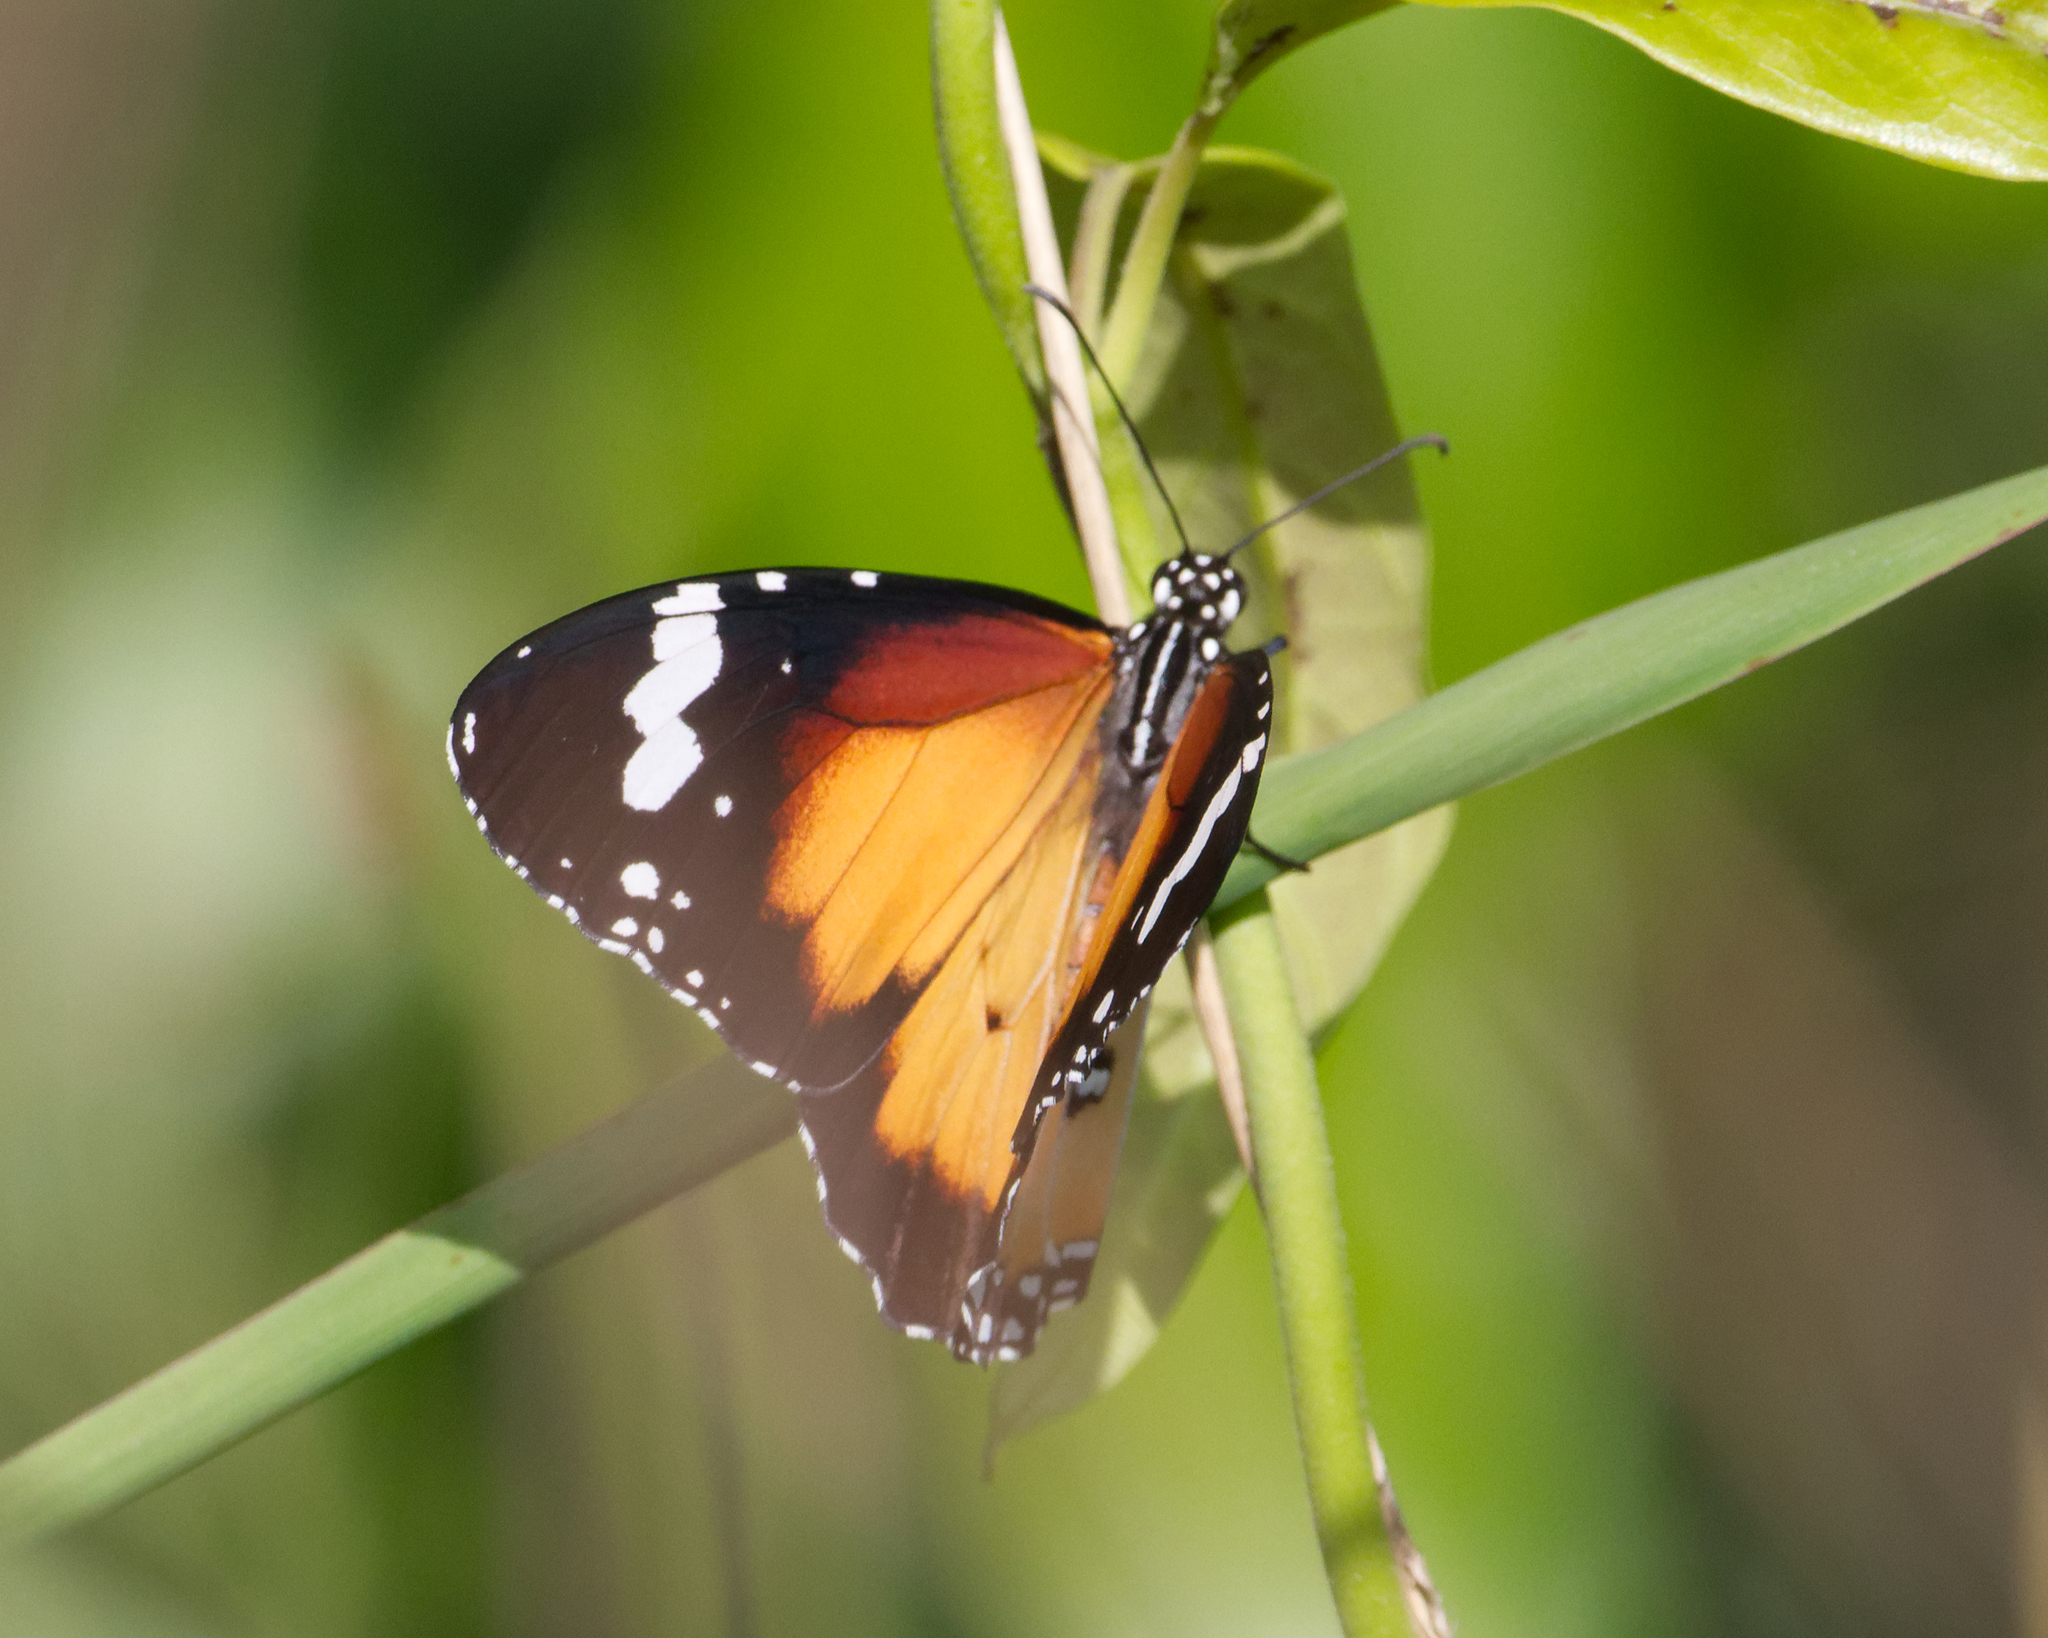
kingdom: Animalia
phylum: Arthropoda
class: Insecta
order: Lepidoptera
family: Nymphalidae
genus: Danaus
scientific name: Danaus chrysippus
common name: Plain tiger
